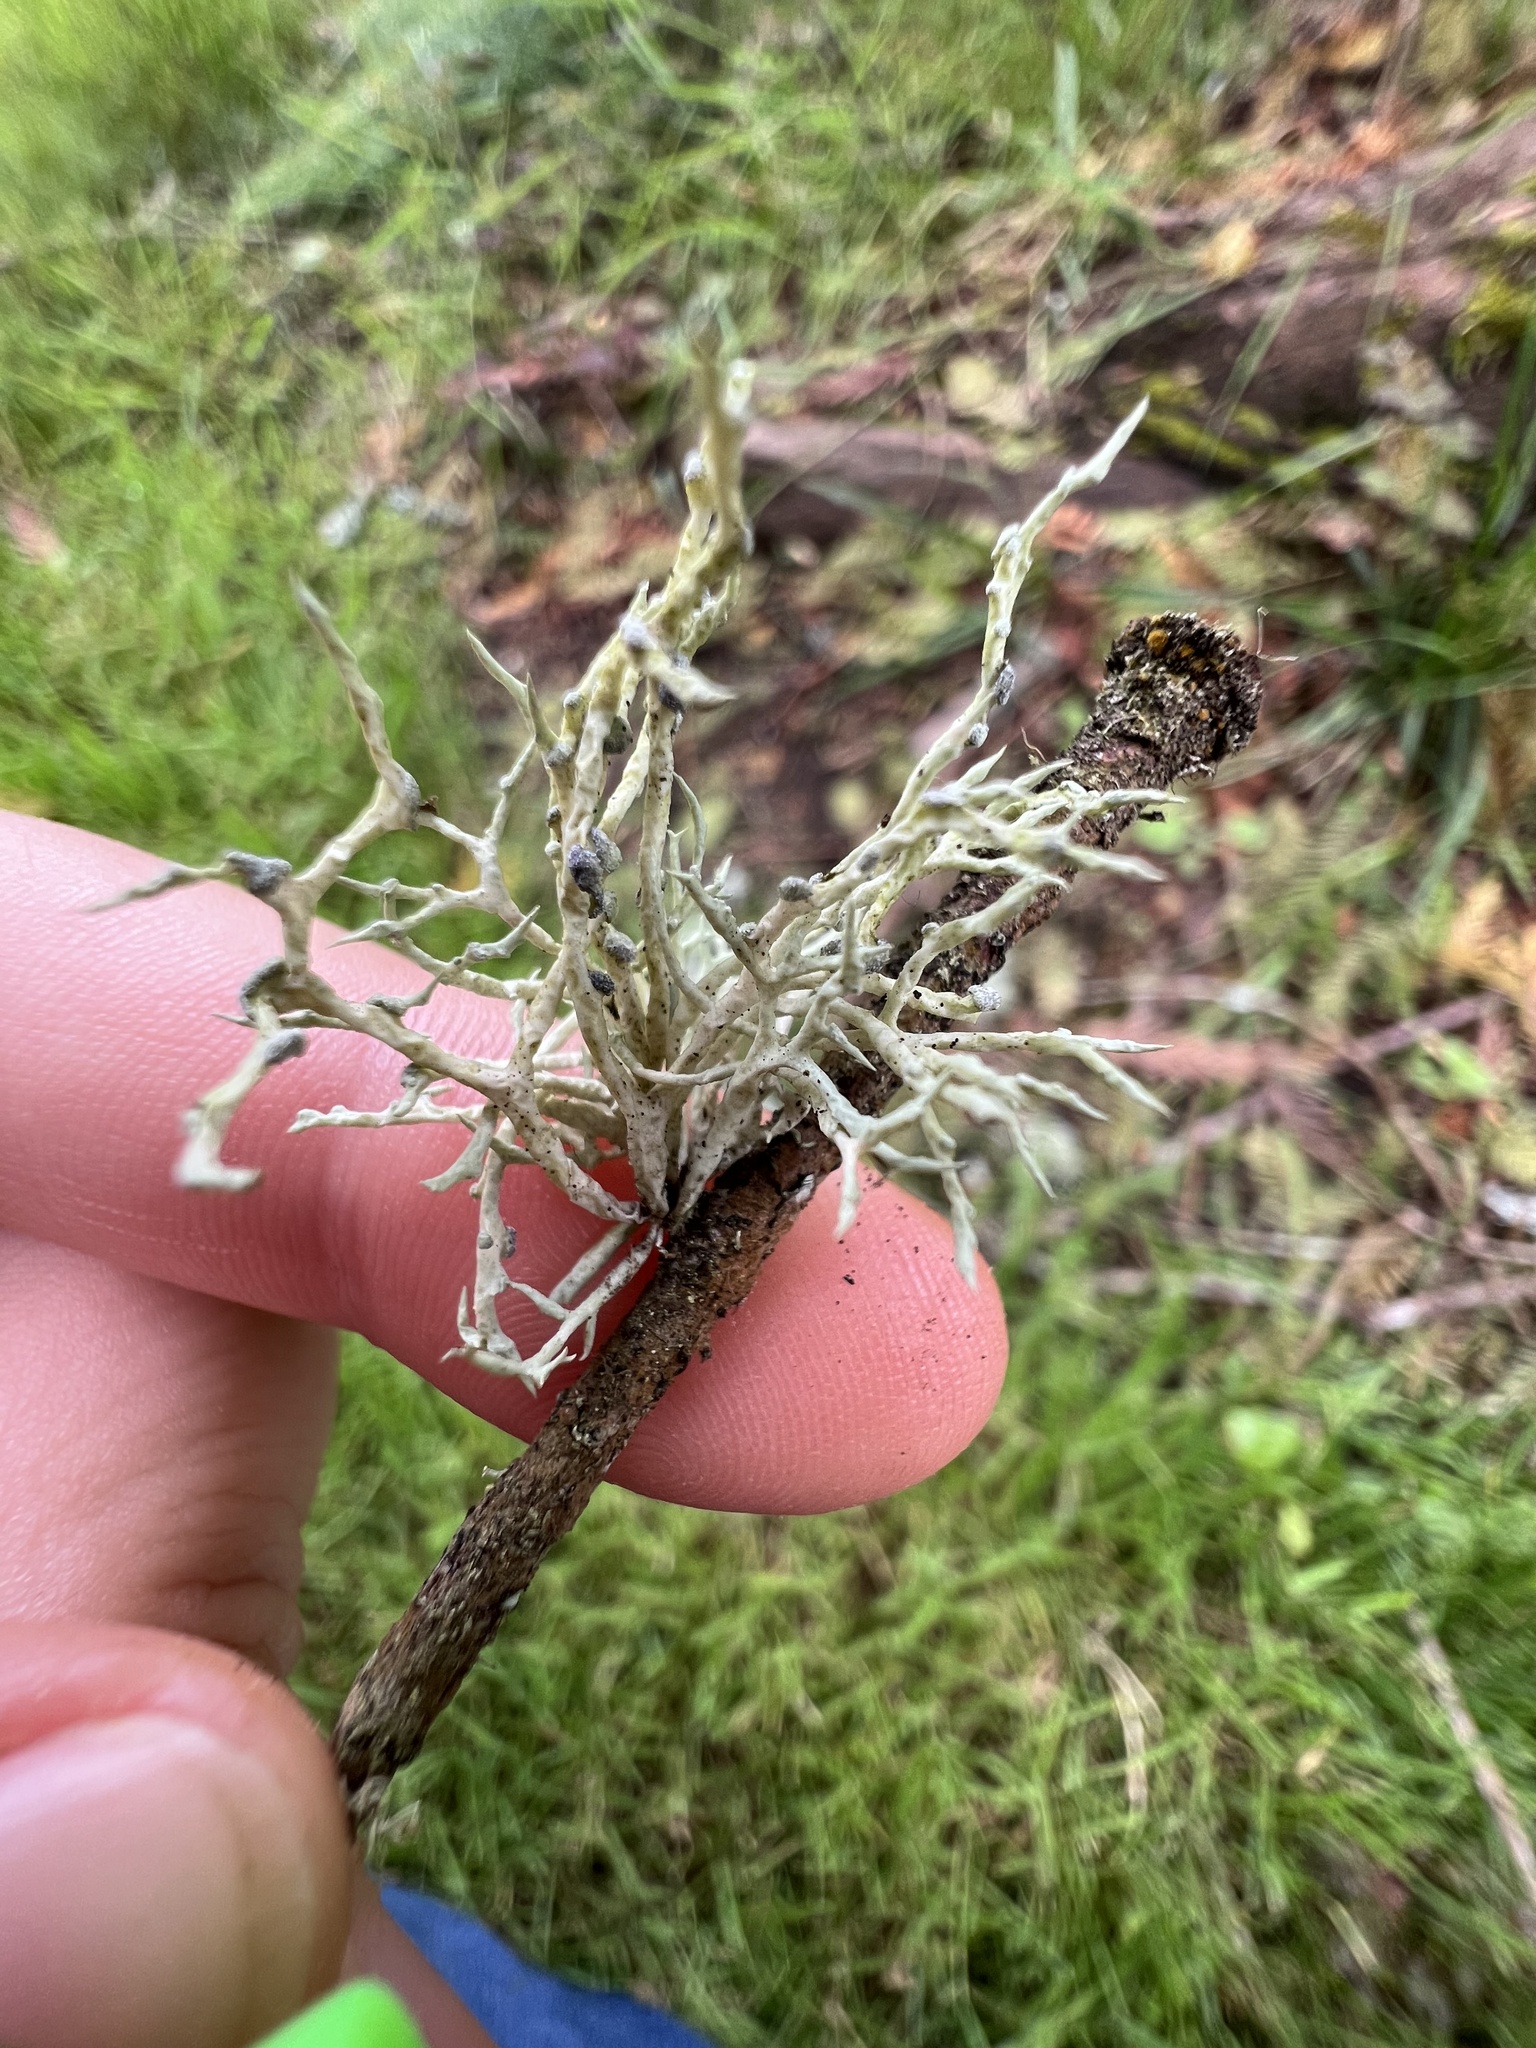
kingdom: Fungi
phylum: Ascomycota
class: Lecanoromycetes
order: Lecanorales
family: Ramalinaceae
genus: Niebla
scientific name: Niebla cephalota
